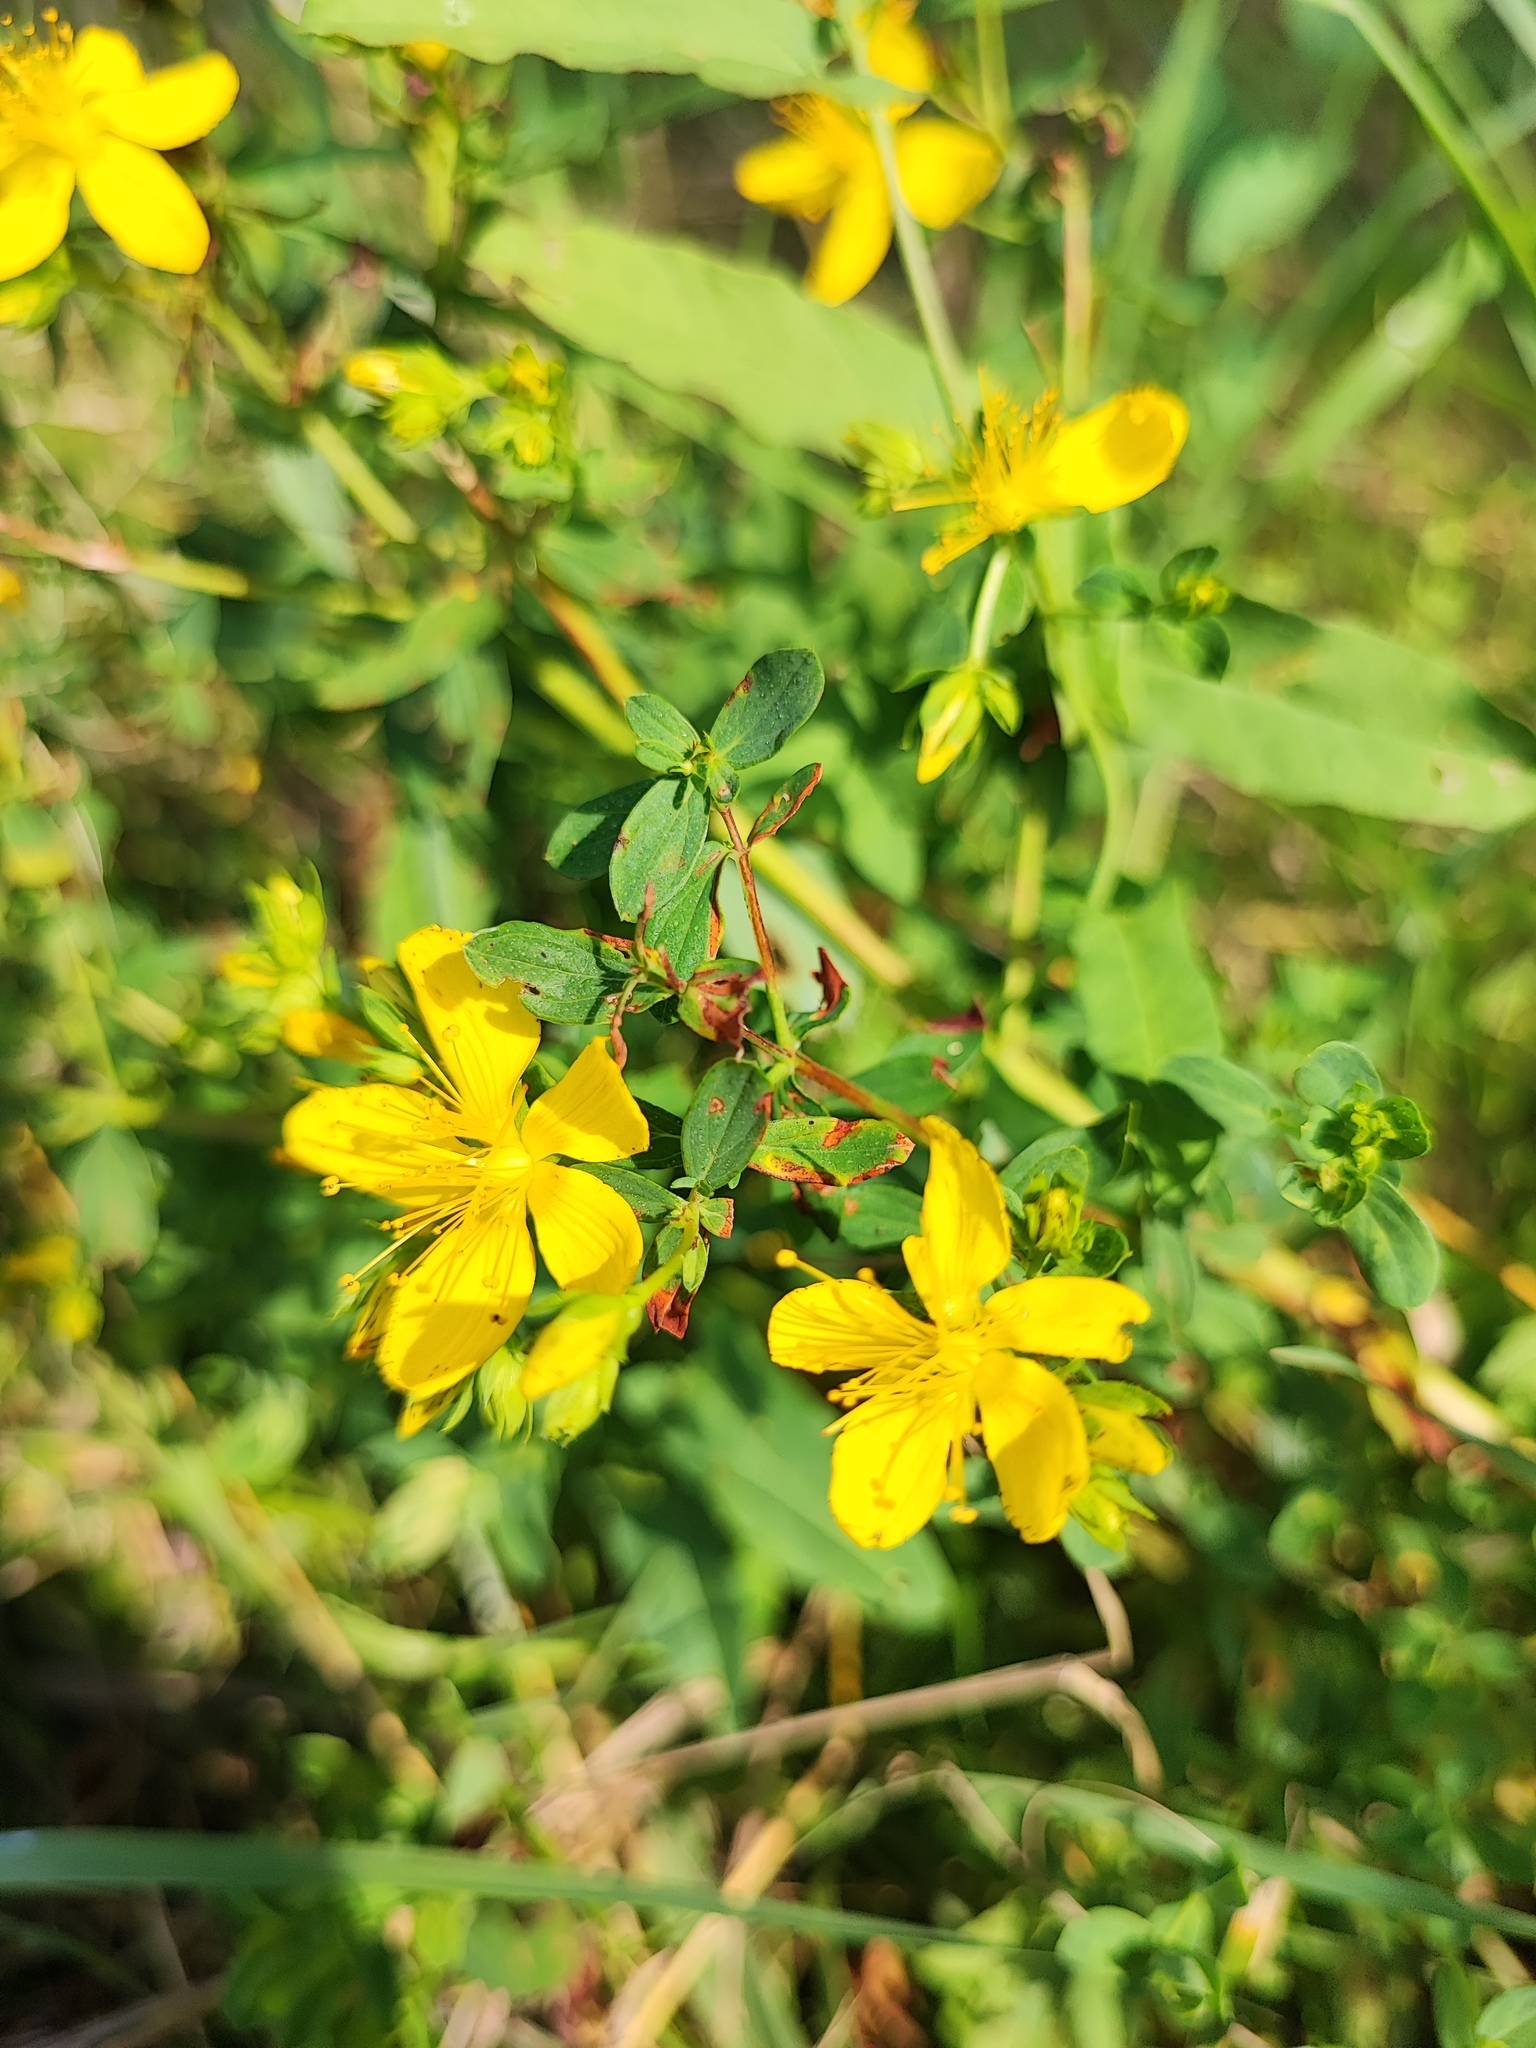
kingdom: Plantae
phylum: Tracheophyta
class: Magnoliopsida
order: Malpighiales
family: Hypericaceae
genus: Hypericum
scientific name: Hypericum perforatum
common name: Common st. johnswort
